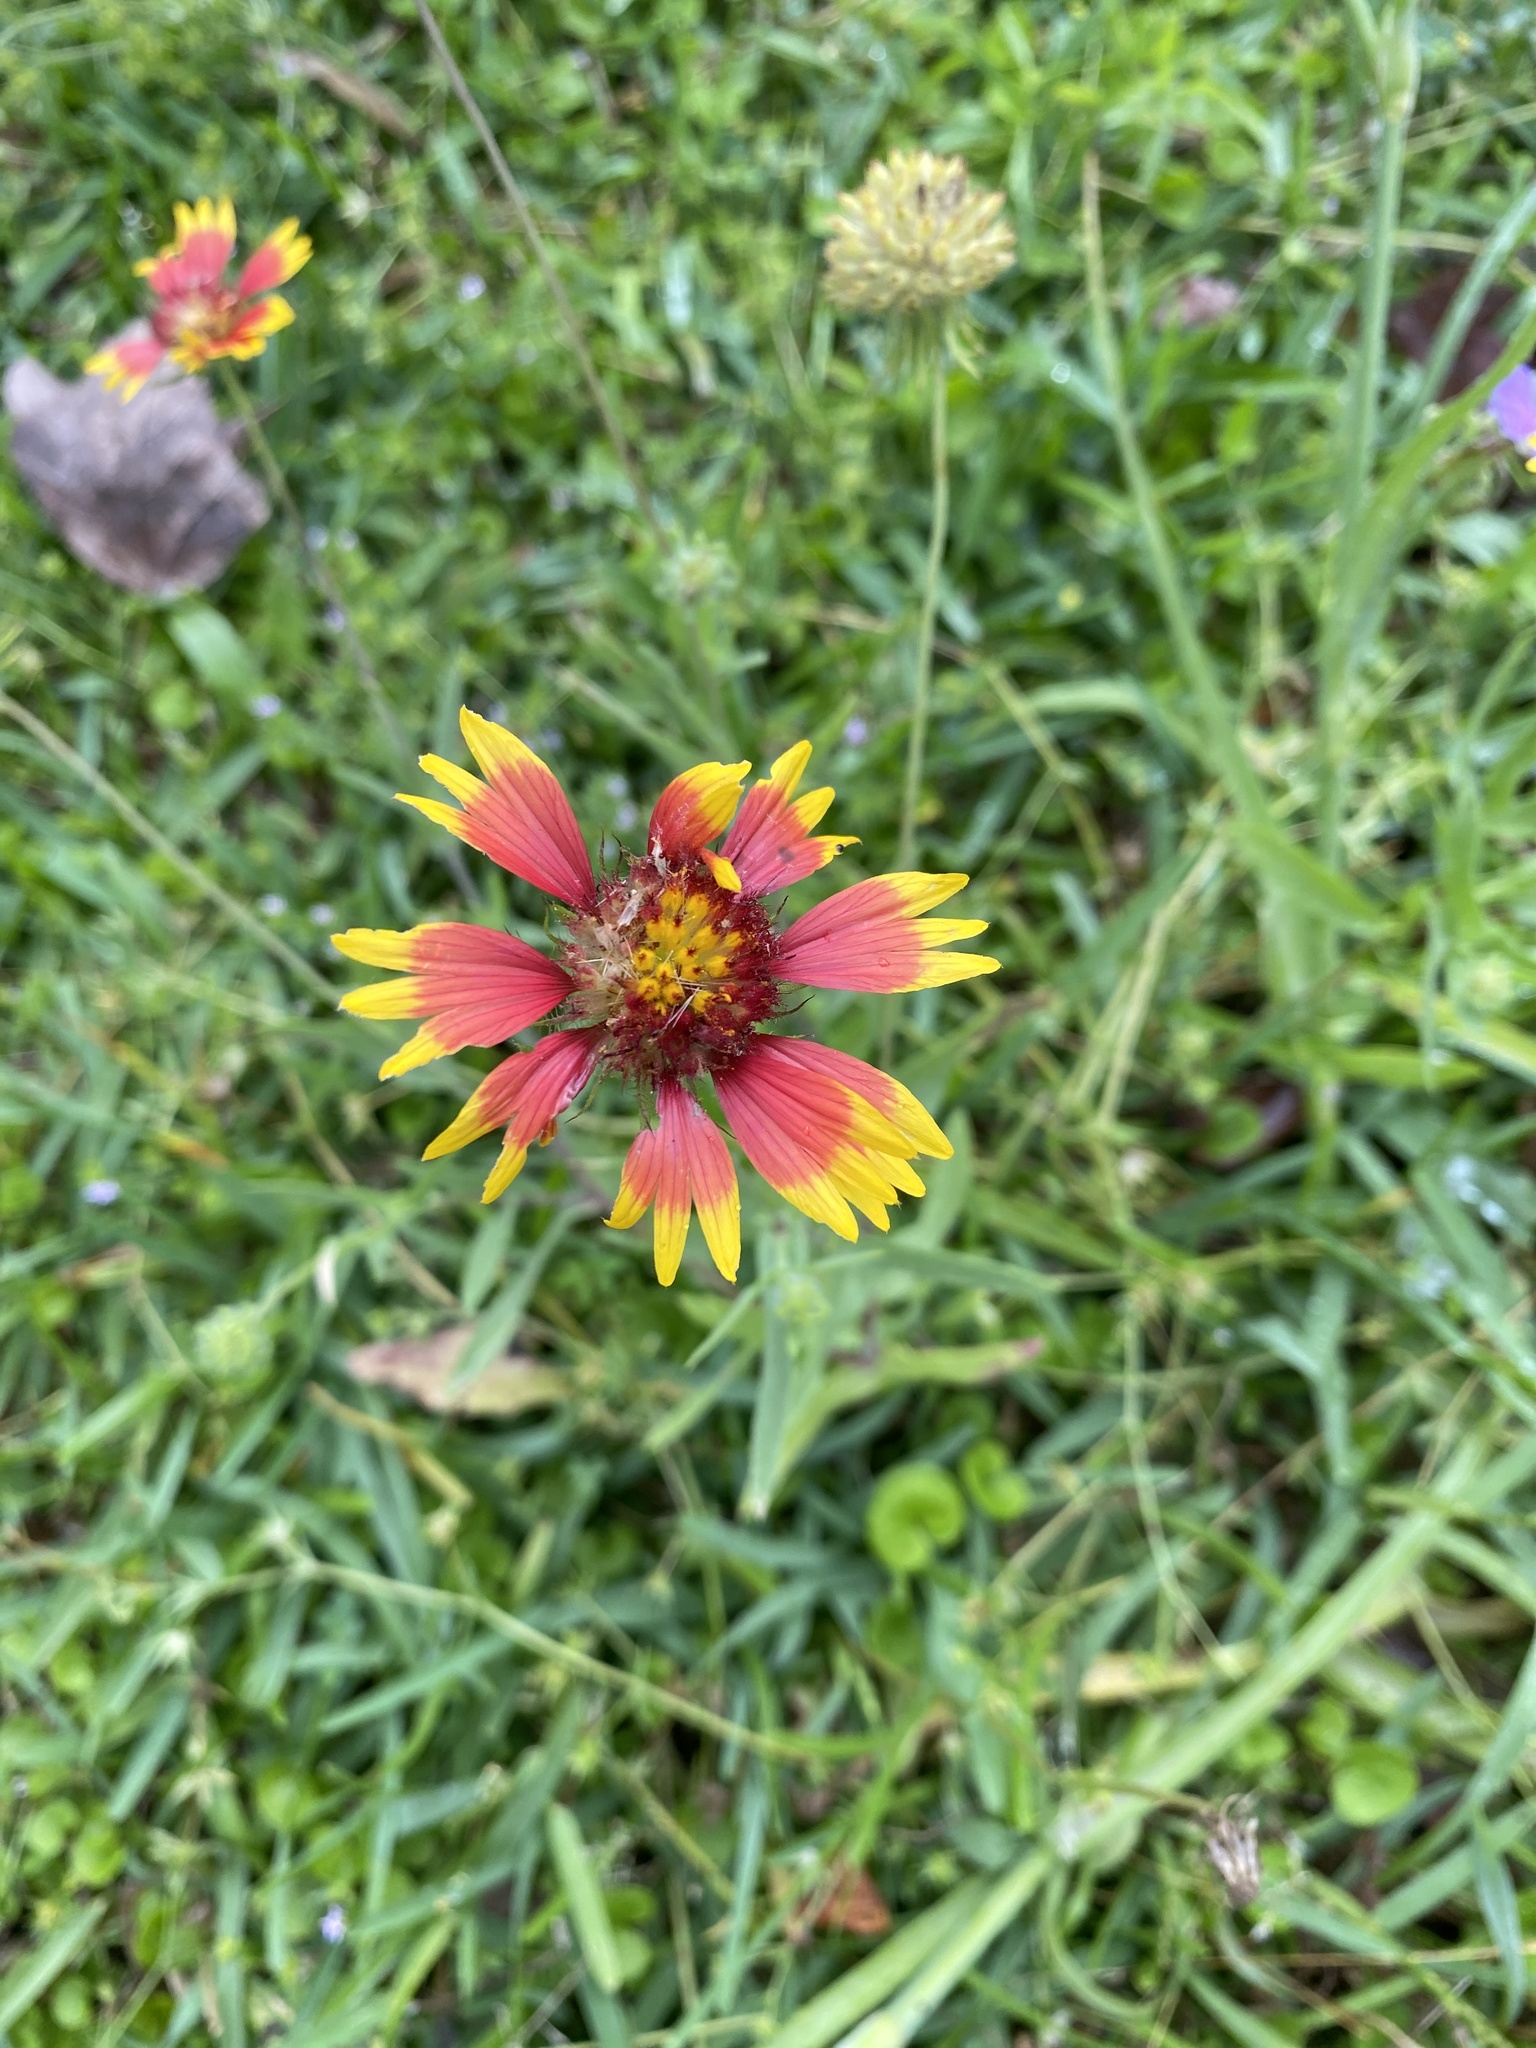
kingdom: Plantae
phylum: Tracheophyta
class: Magnoliopsida
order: Asterales
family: Asteraceae
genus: Gaillardia
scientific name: Gaillardia pulchella
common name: Firewheel
